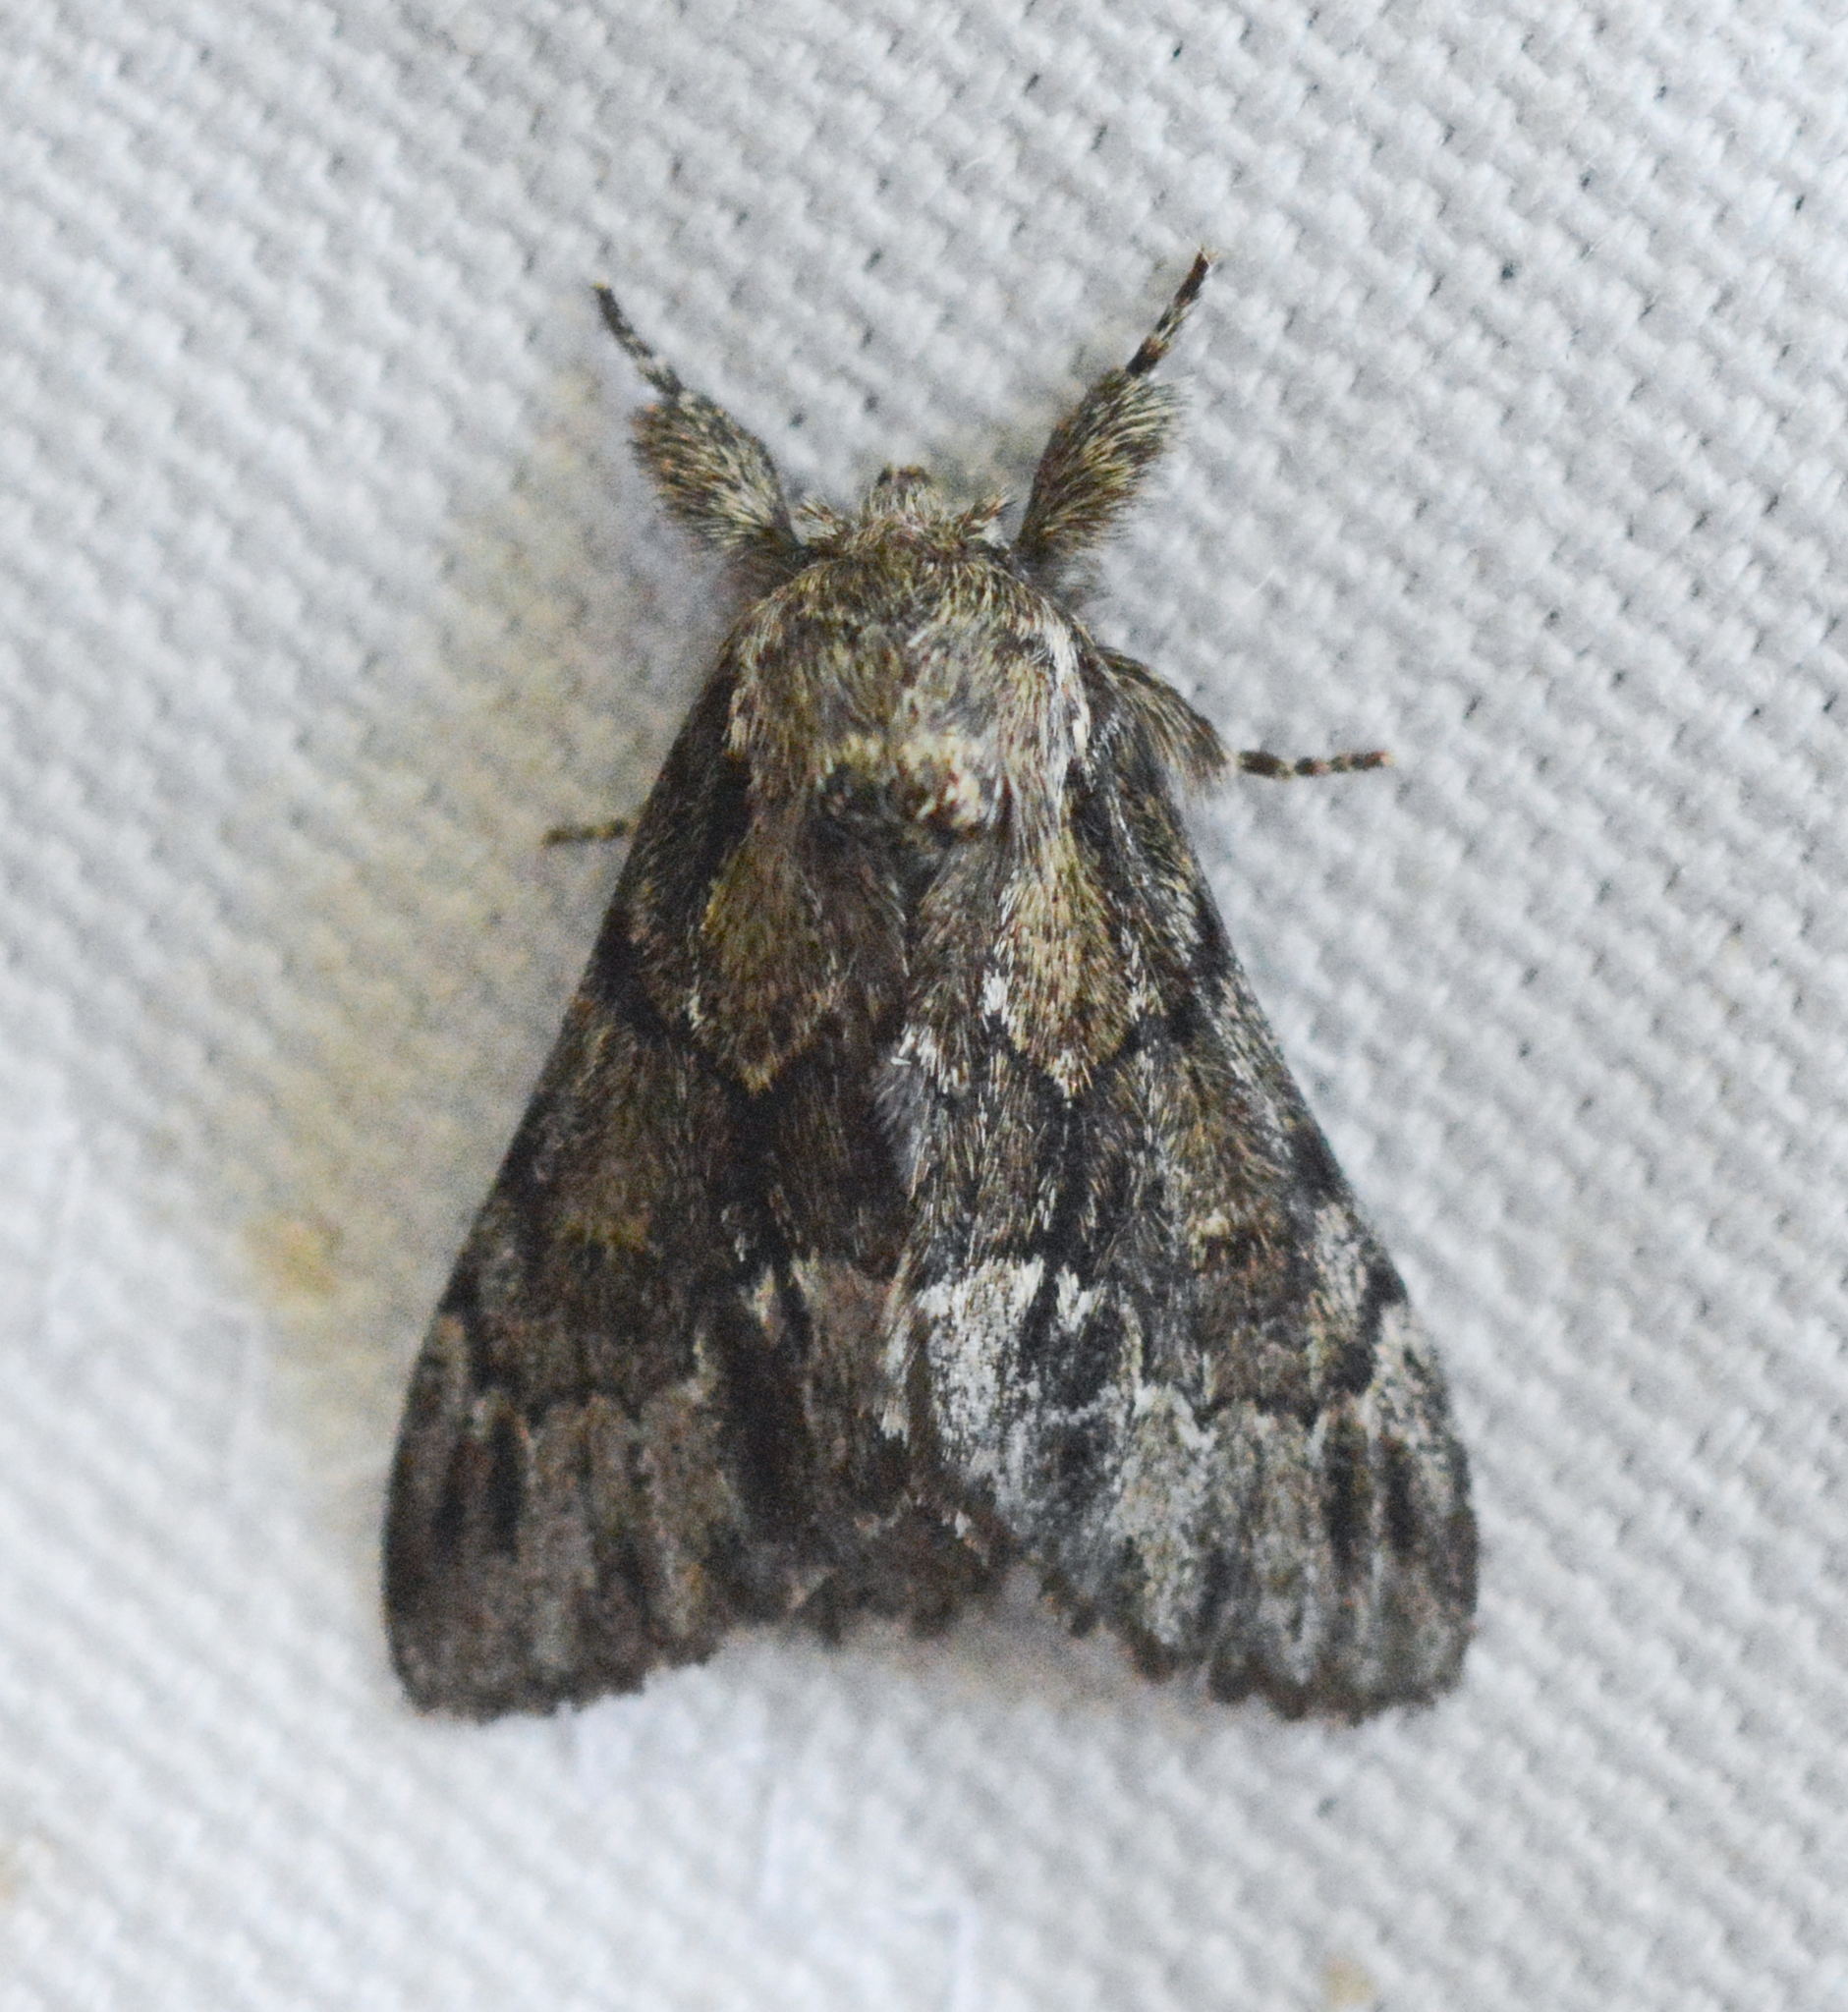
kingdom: Animalia
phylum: Arthropoda
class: Insecta
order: Lepidoptera
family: Notodontidae
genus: Paraeschra
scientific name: Paraeschra georgica
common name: Georgian prominent
